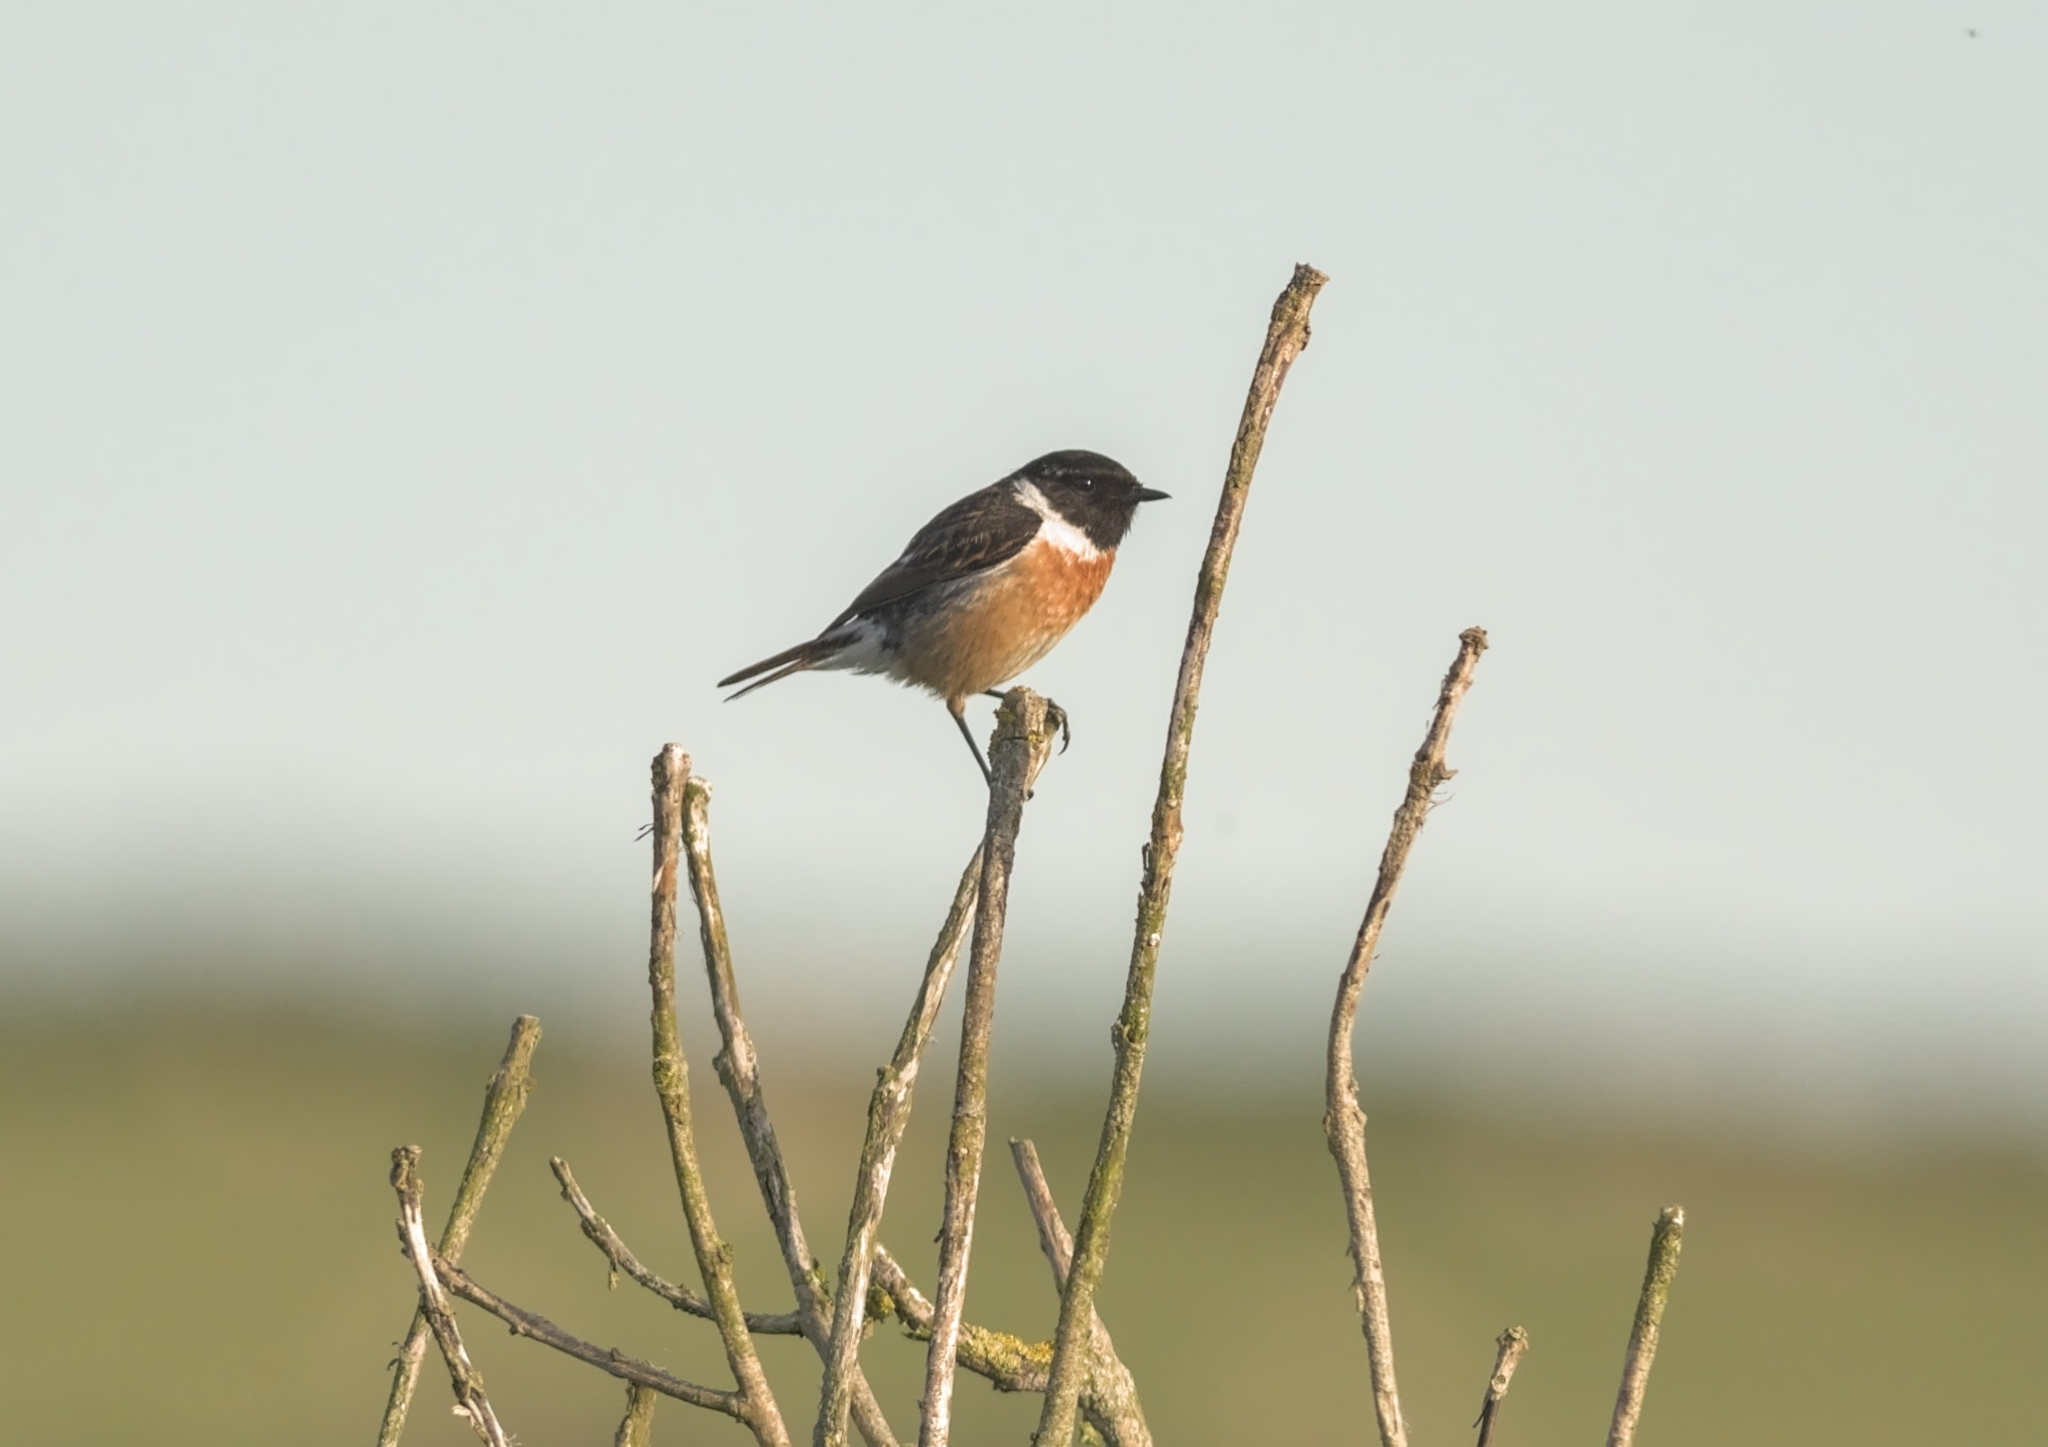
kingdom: Animalia
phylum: Chordata
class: Aves
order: Passeriformes
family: Muscicapidae
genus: Saxicola
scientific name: Saxicola rubicola
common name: European stonechat
